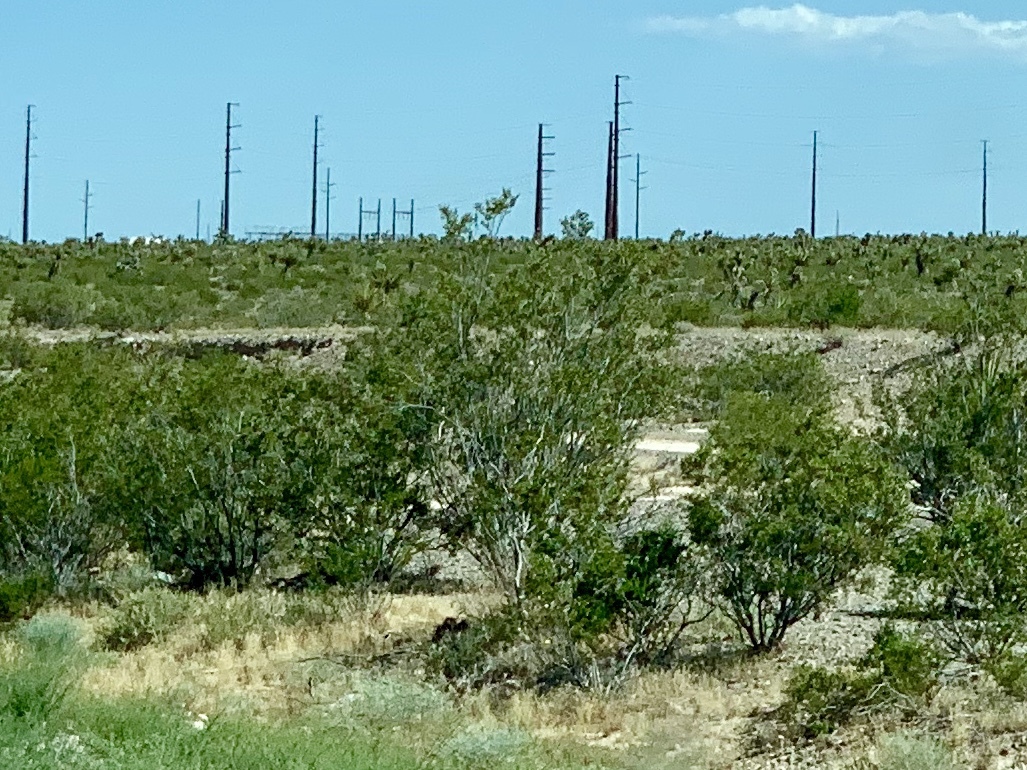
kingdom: Plantae
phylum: Tracheophyta
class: Magnoliopsida
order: Zygophyllales
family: Zygophyllaceae
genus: Larrea
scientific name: Larrea tridentata
